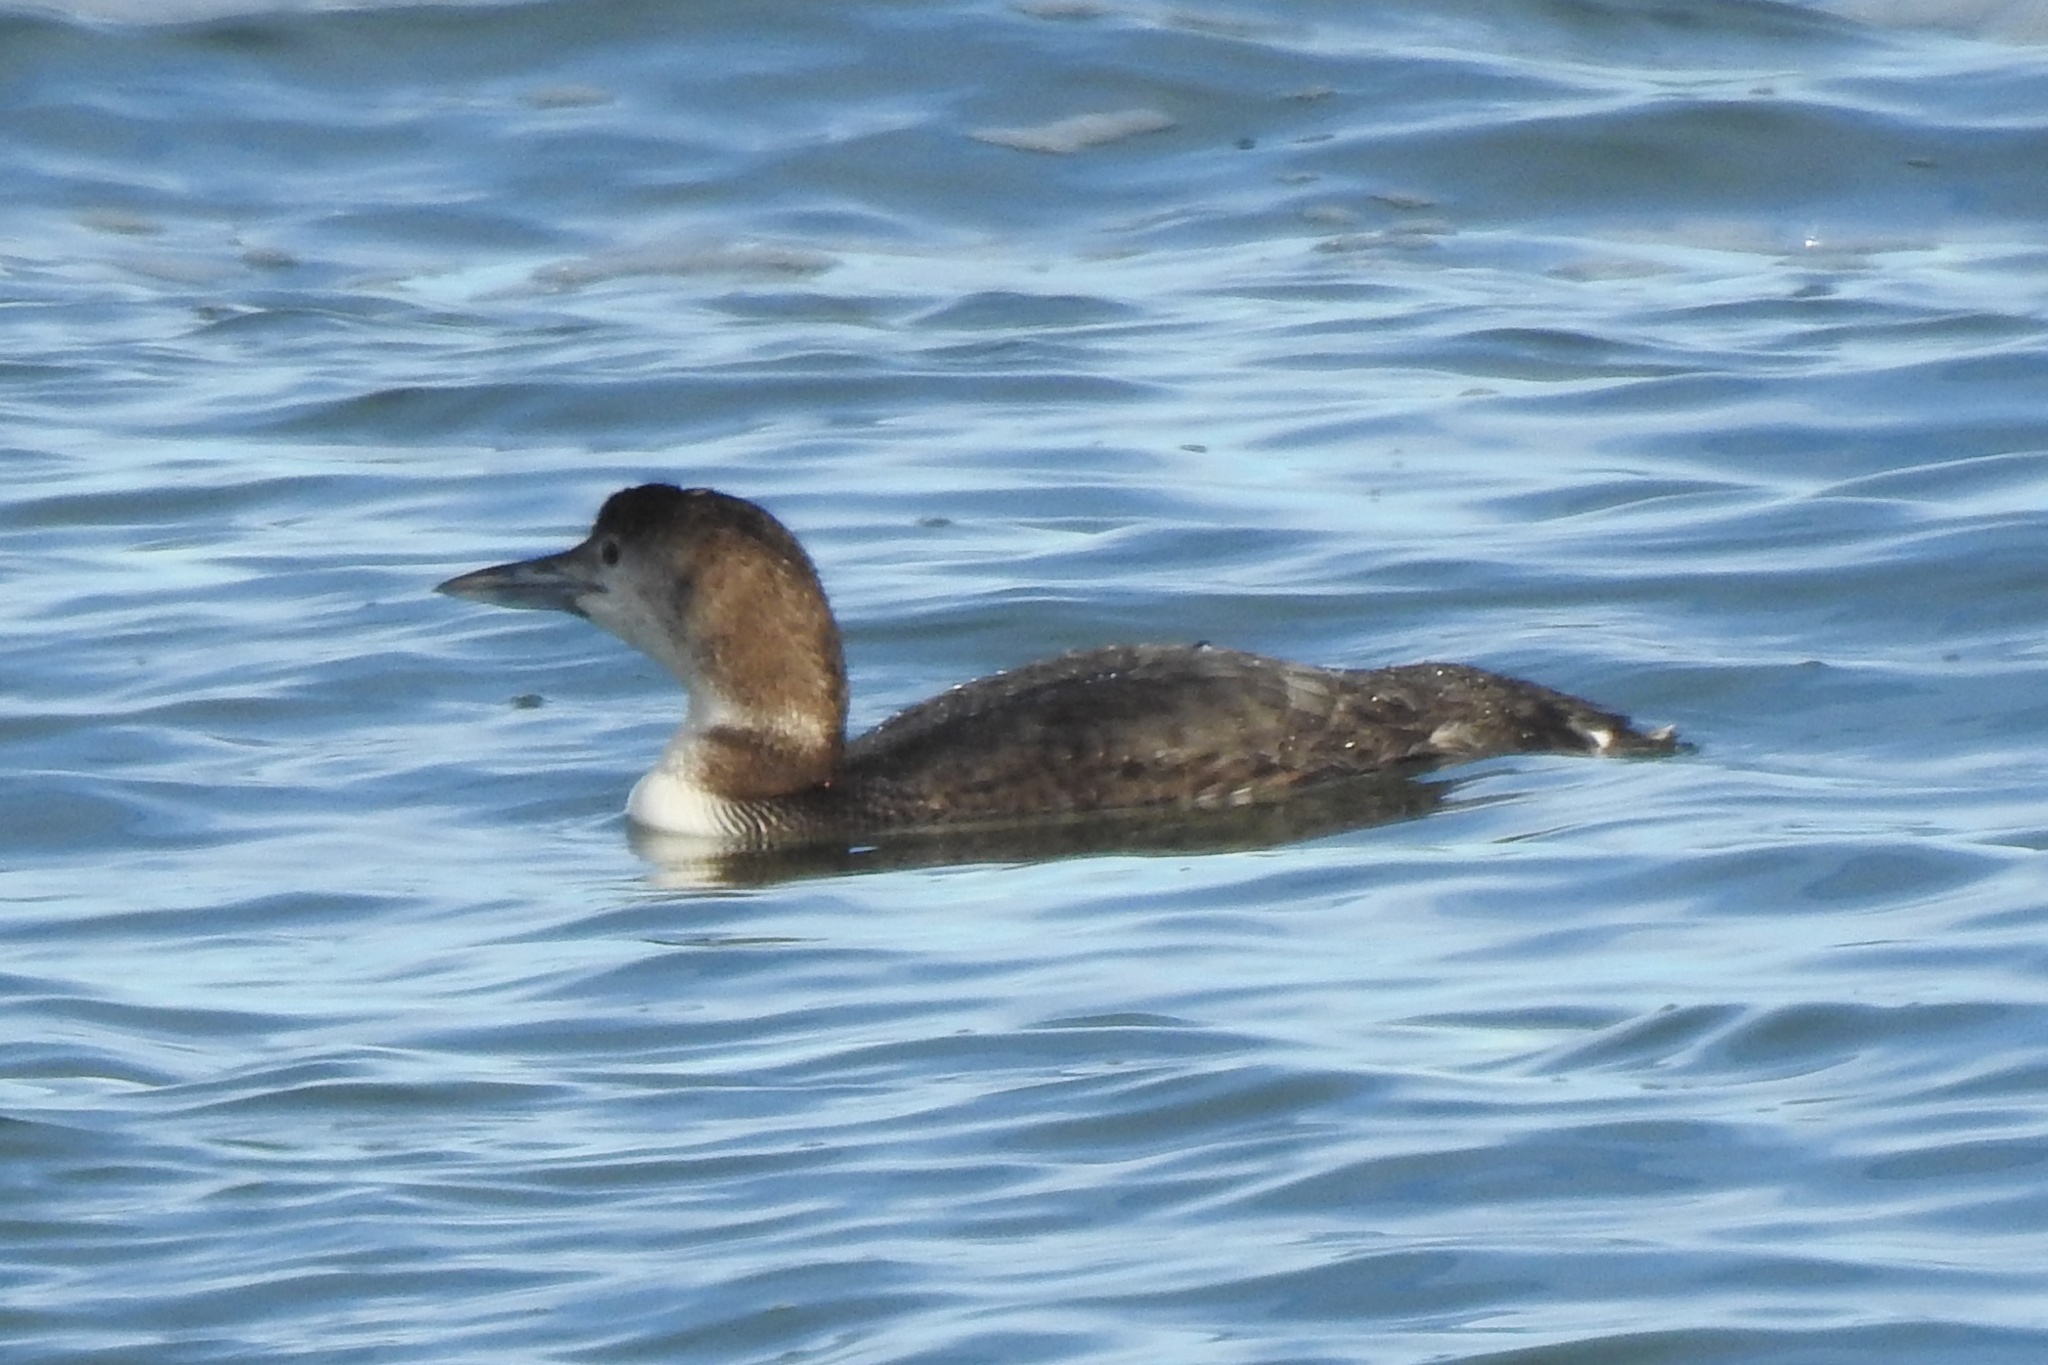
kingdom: Animalia
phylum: Chordata
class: Aves
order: Gaviiformes
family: Gaviidae
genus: Gavia
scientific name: Gavia immer
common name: Common loon
